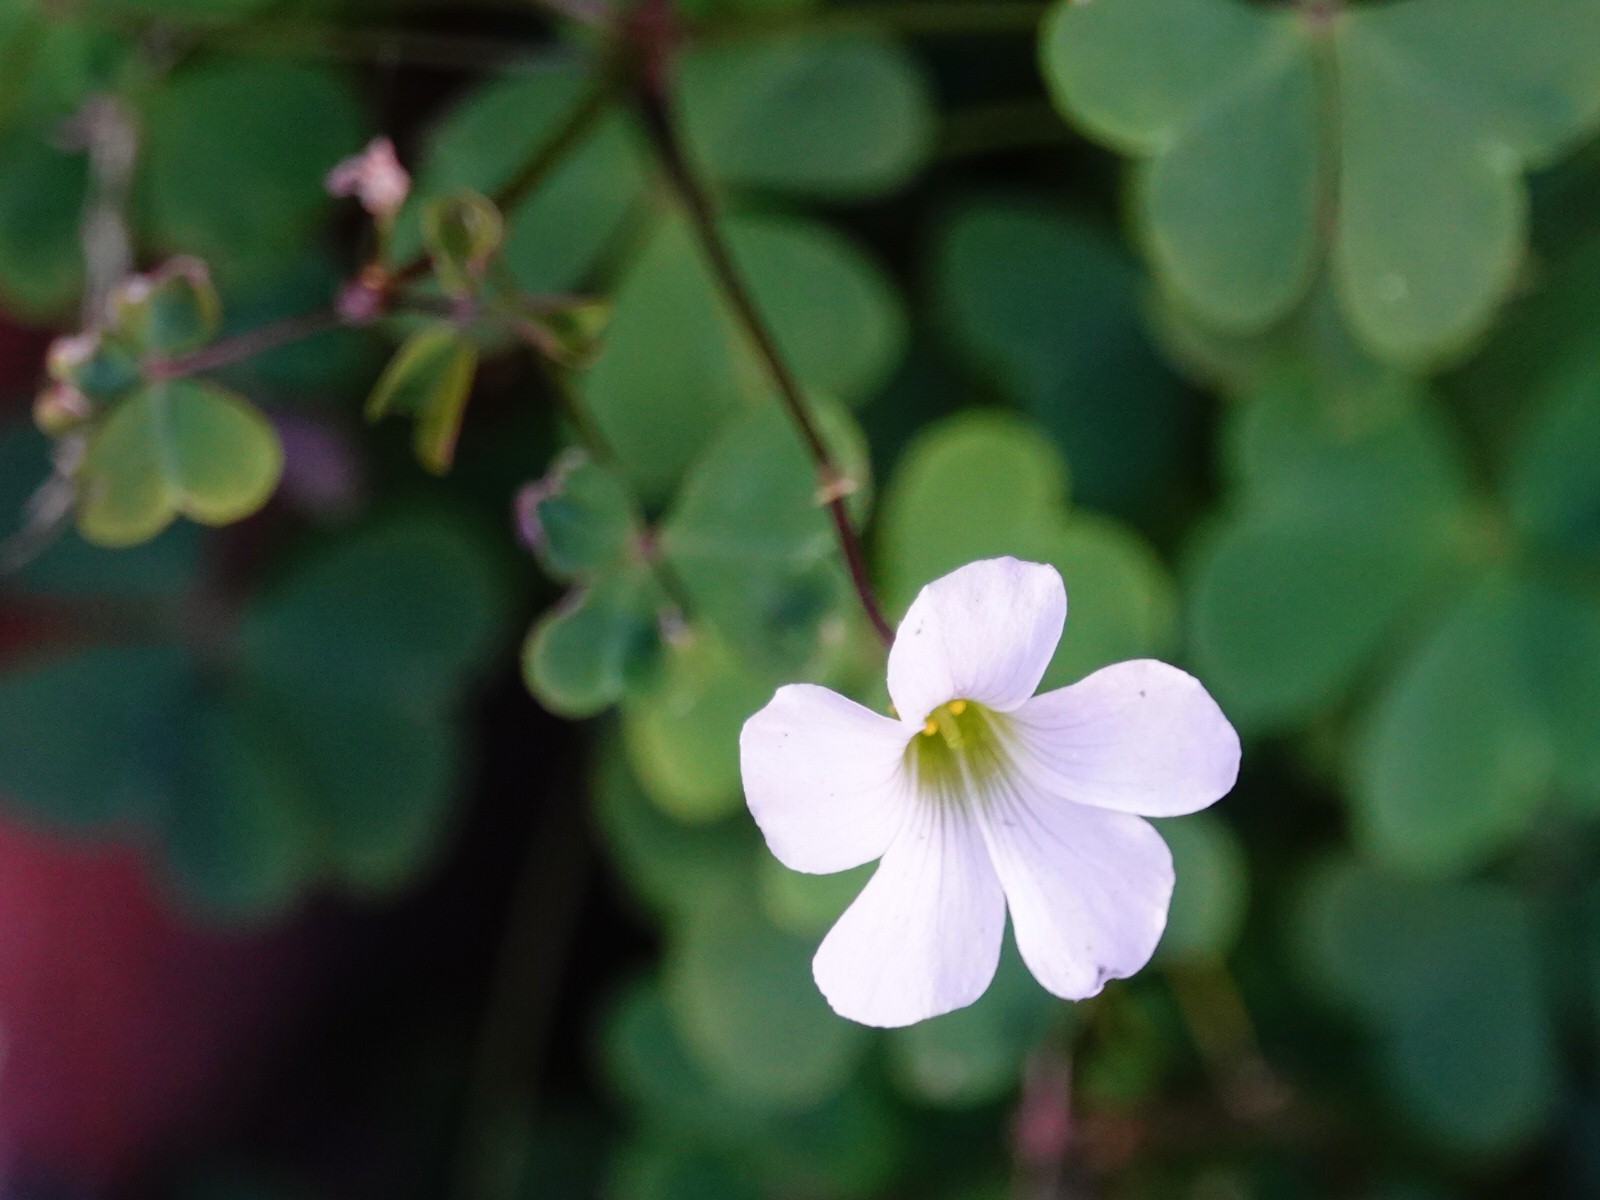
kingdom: Plantae
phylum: Tracheophyta
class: Magnoliopsida
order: Oxalidales
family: Oxalidaceae
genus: Oxalis
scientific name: Oxalis incarnata
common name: Pale pink-sorrel
